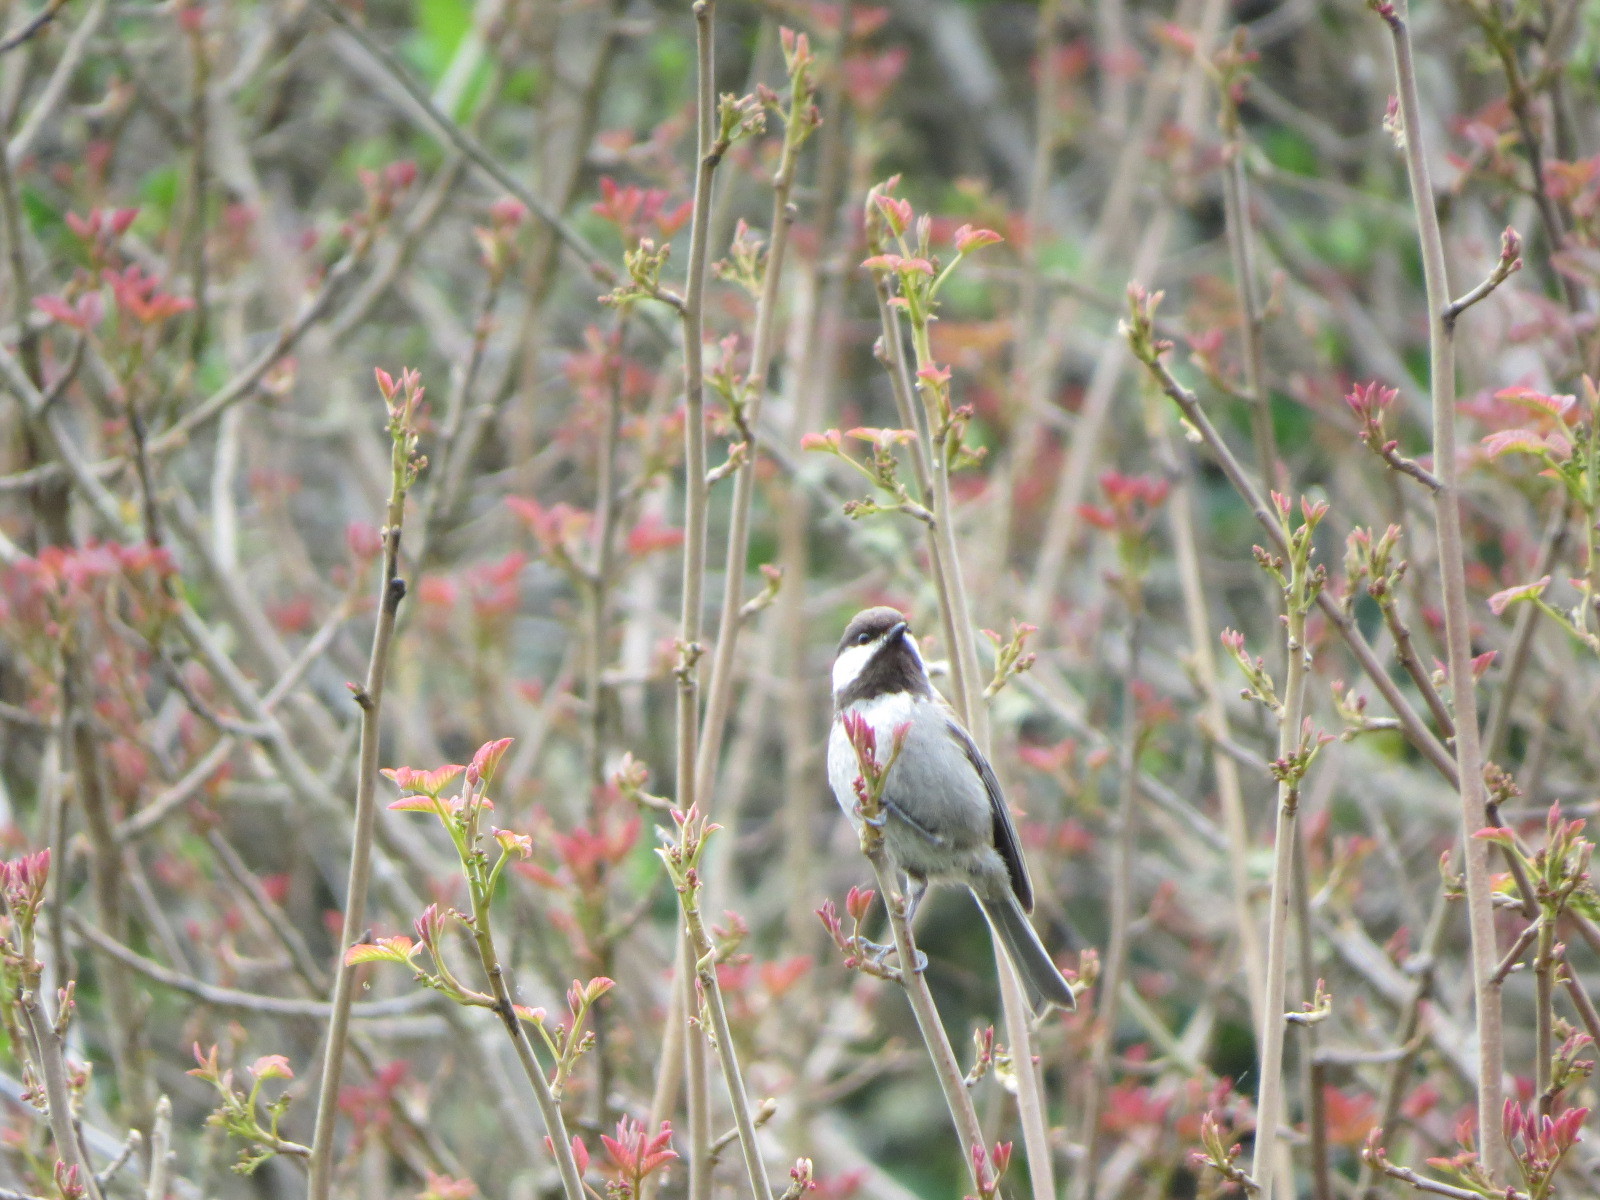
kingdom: Animalia
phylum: Chordata
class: Aves
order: Passeriformes
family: Paridae
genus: Poecile
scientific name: Poecile rufescens
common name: Chestnut-backed chickadee
